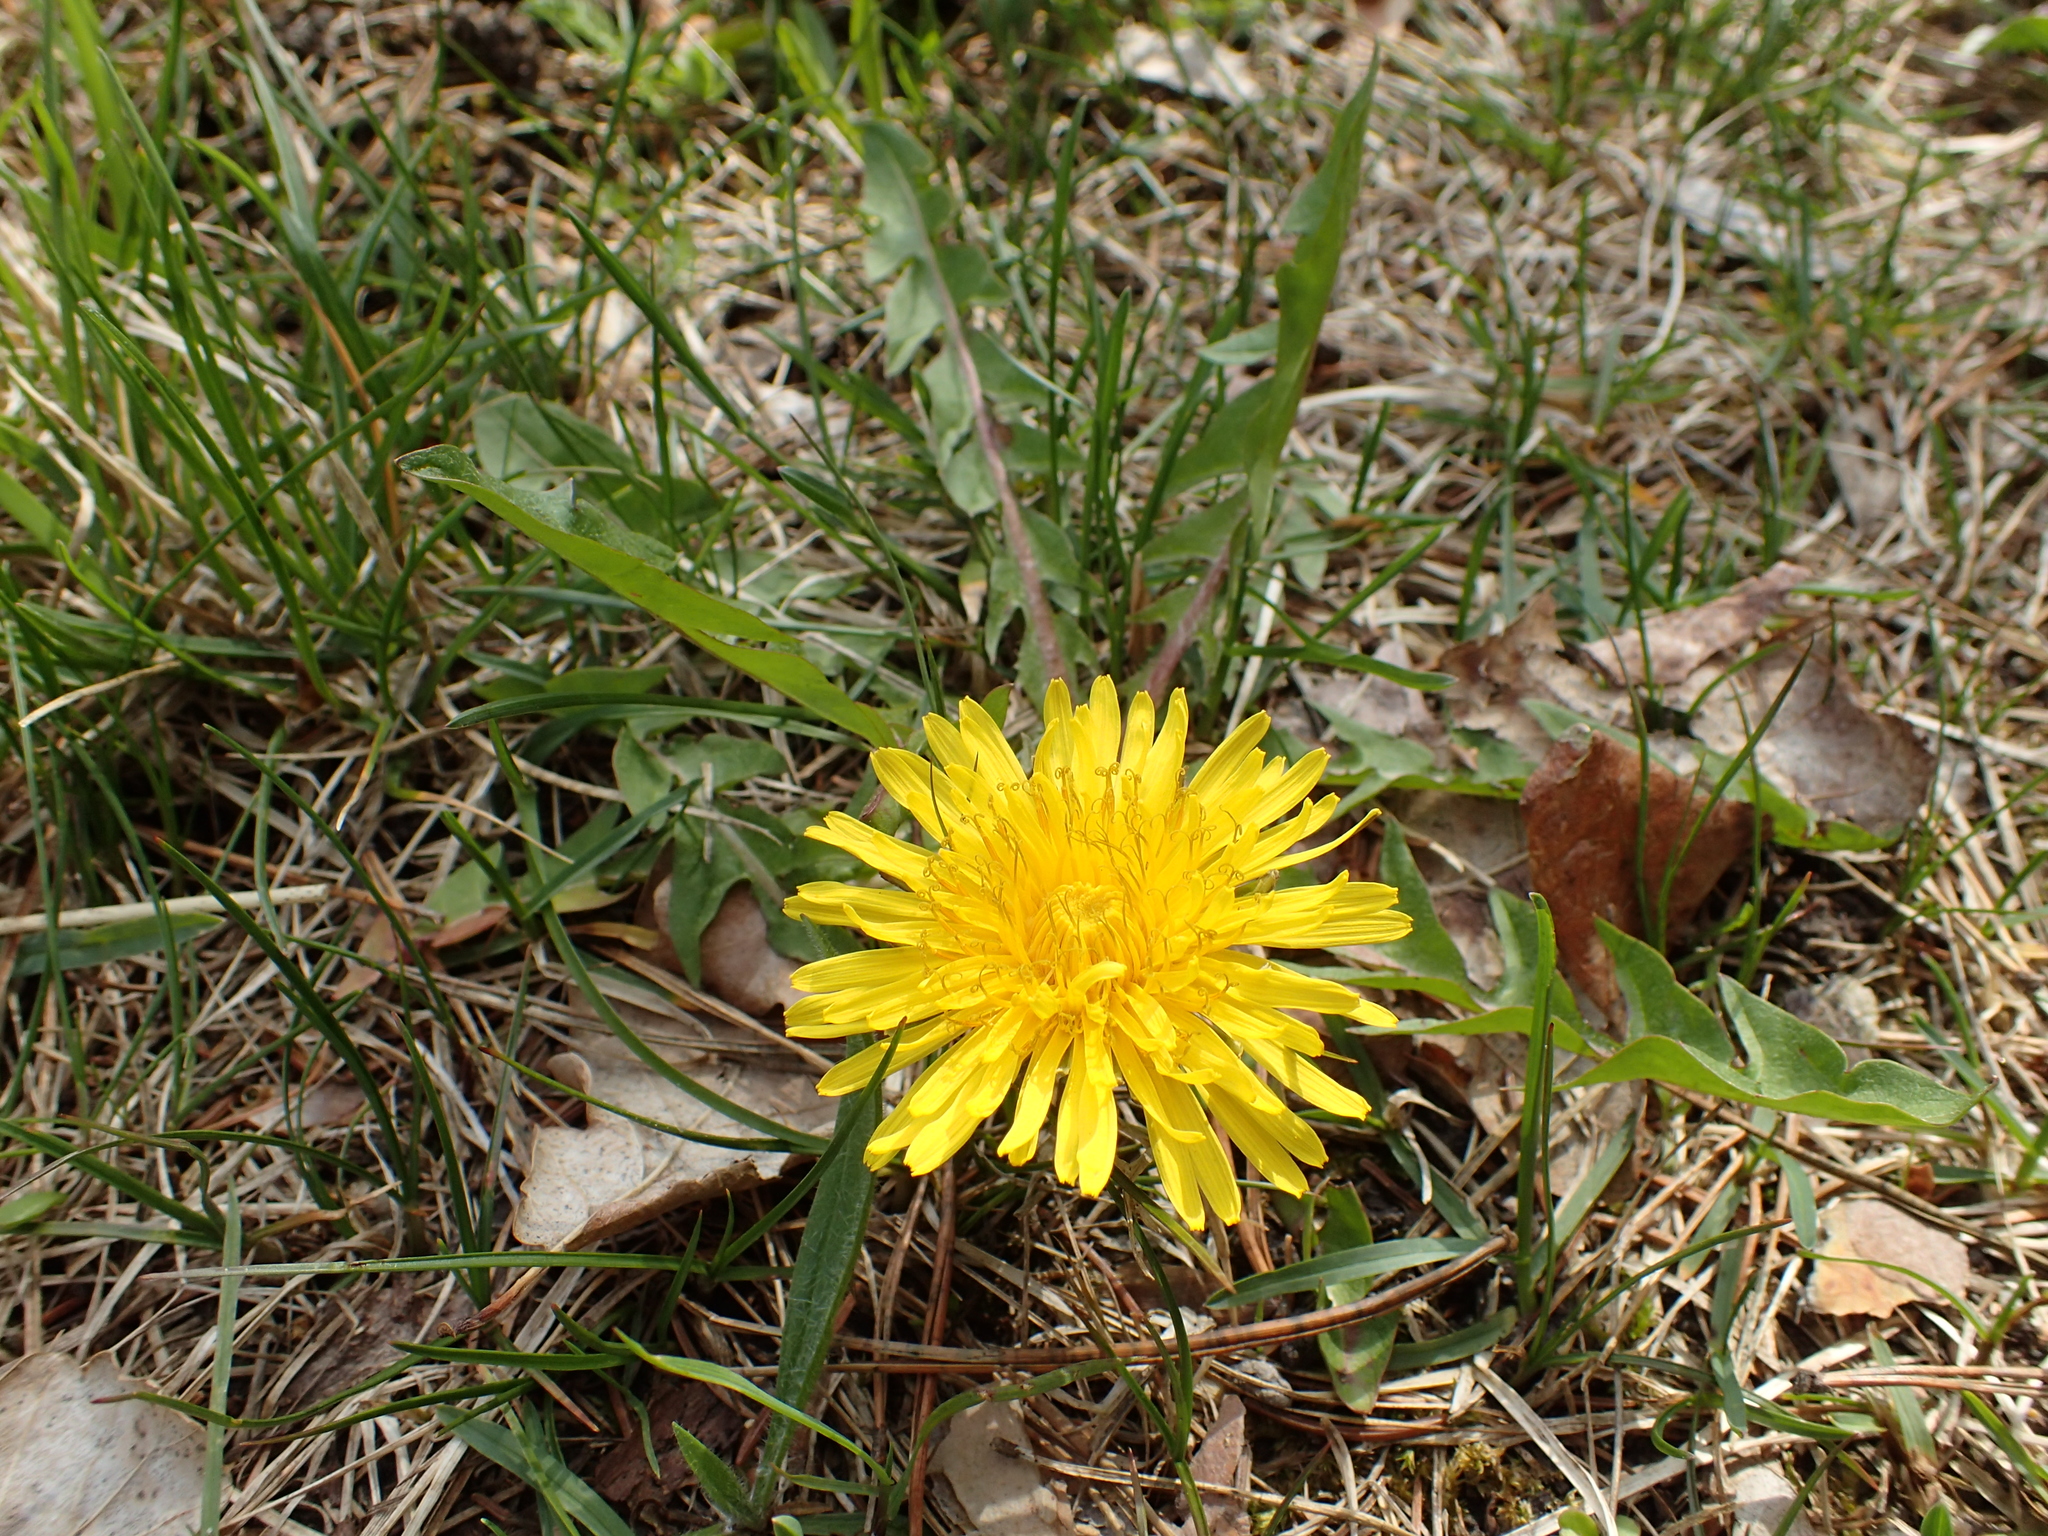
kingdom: Plantae
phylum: Tracheophyta
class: Magnoliopsida
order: Asterales
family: Asteraceae
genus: Taraxacum
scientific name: Taraxacum
